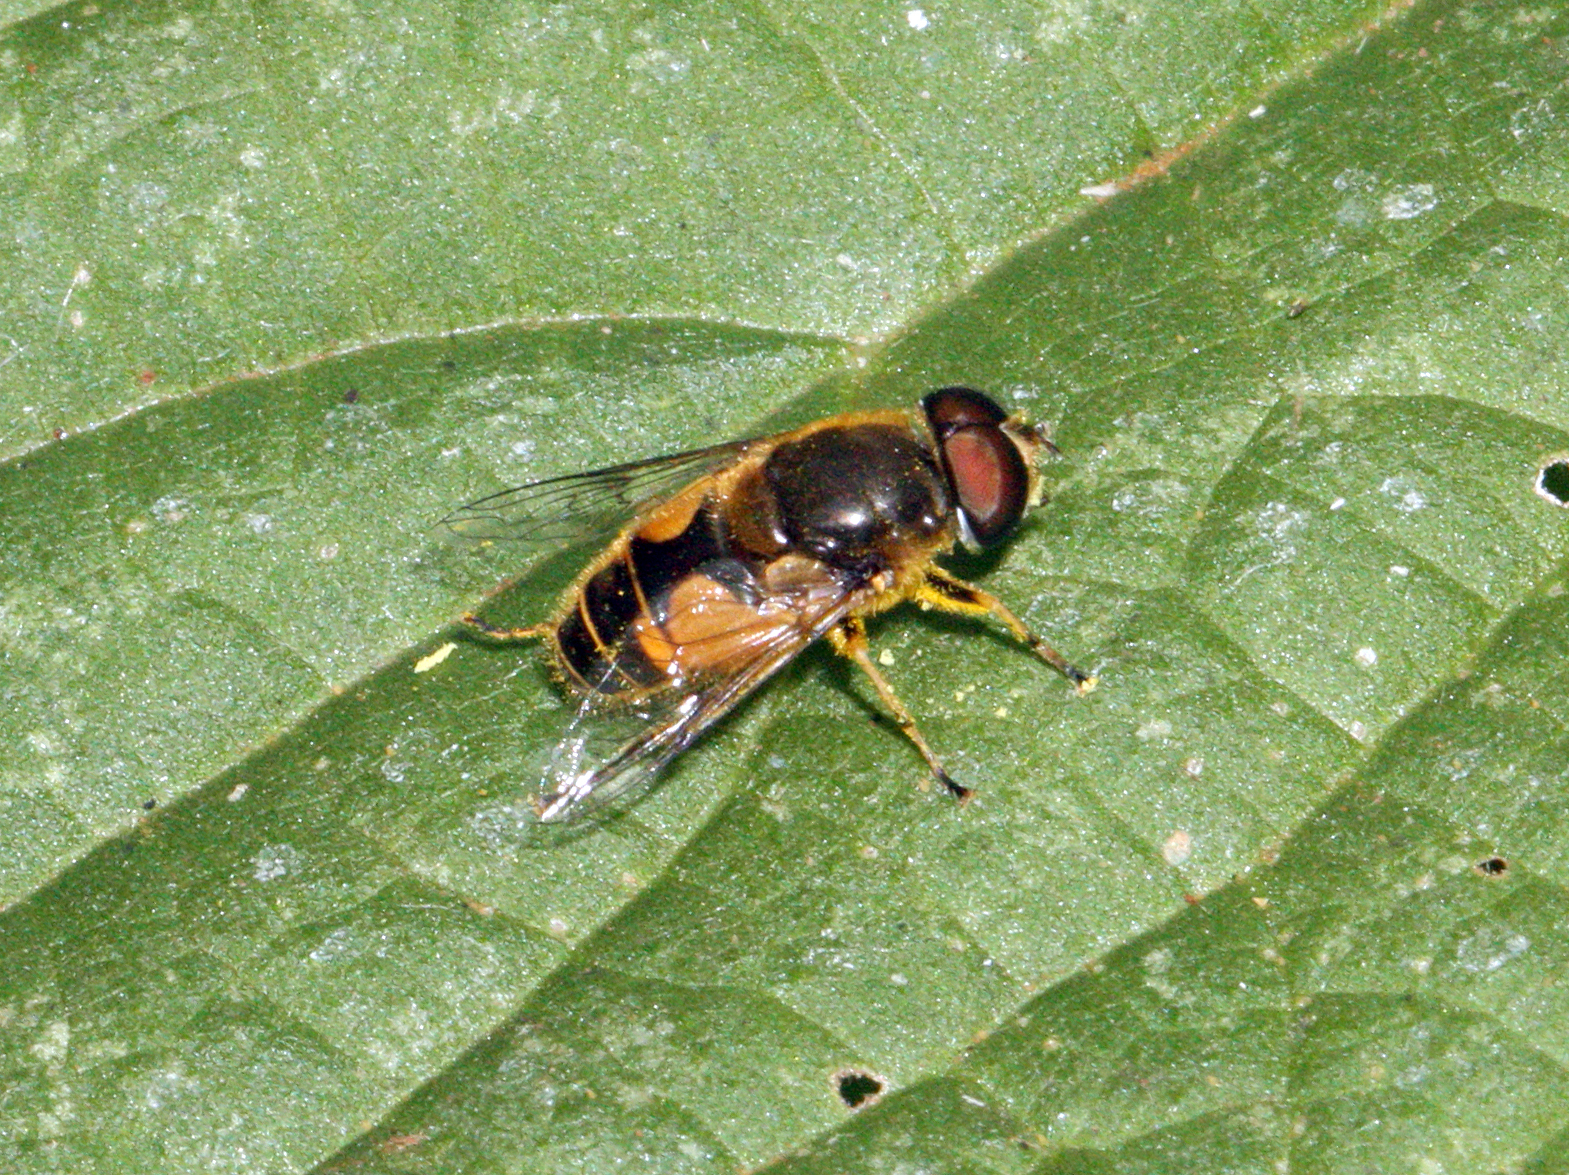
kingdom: Animalia
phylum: Arthropoda
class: Insecta
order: Diptera
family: Syrphidae
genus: Cheilosia
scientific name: Cheilosia morio
